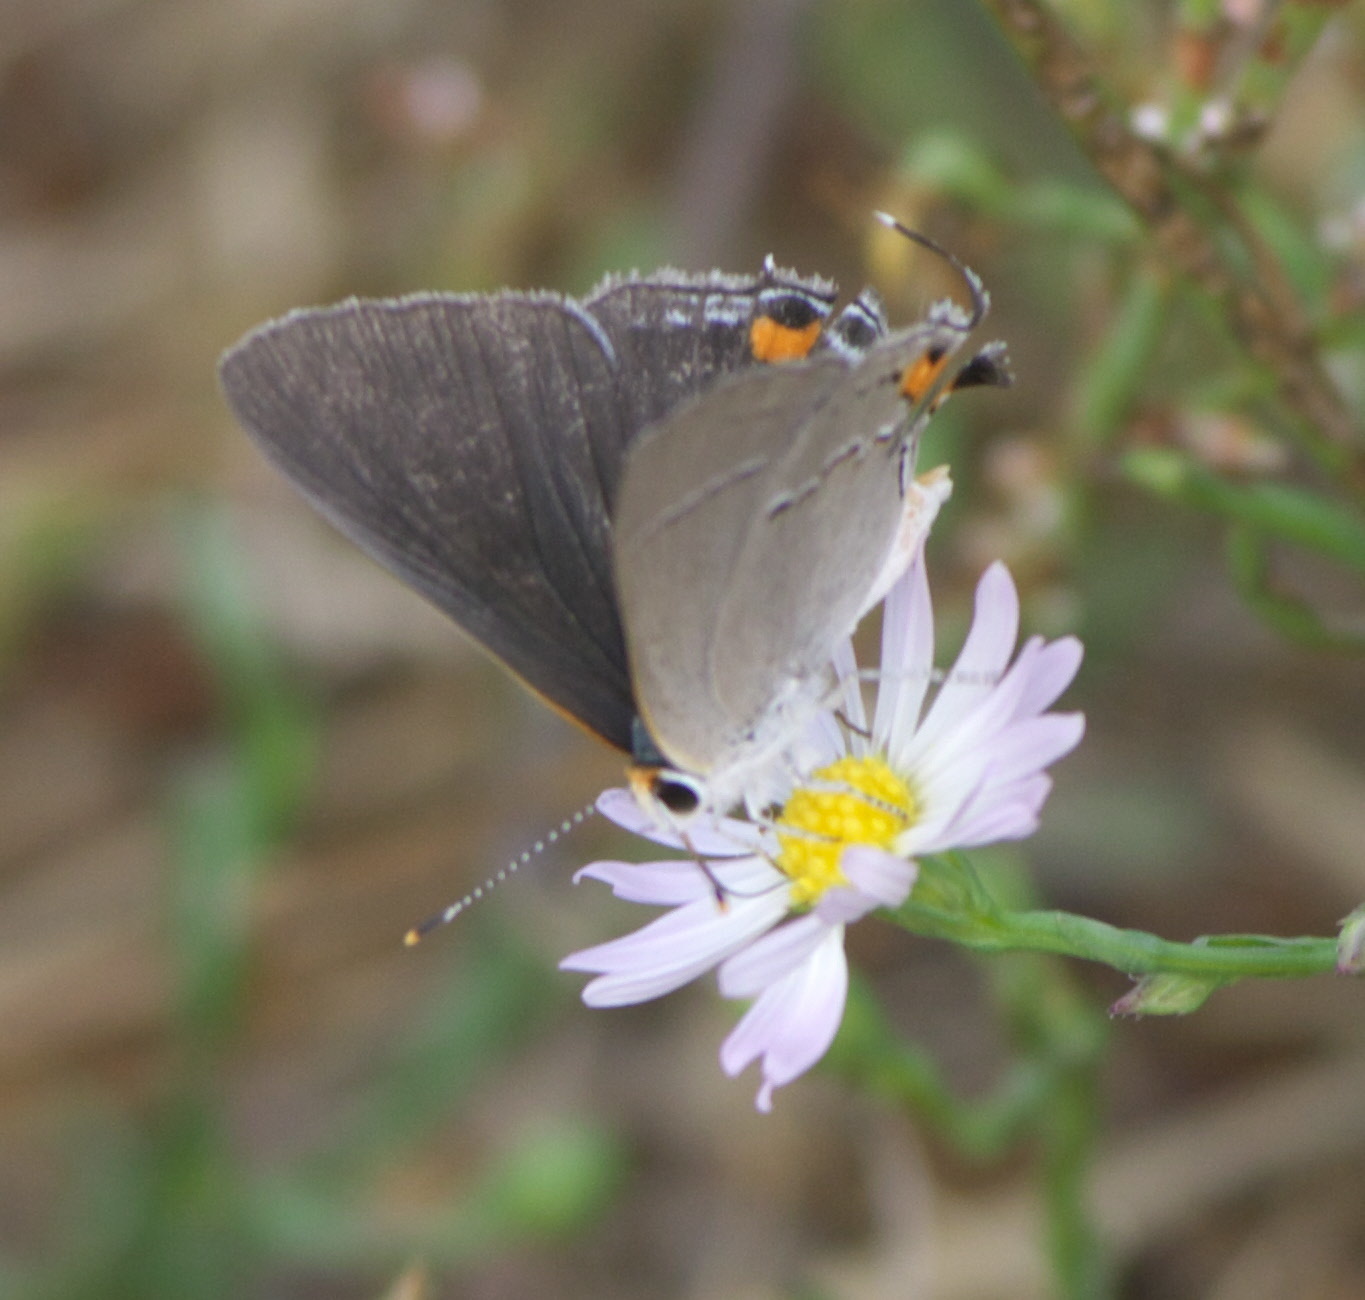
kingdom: Animalia
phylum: Arthropoda
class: Insecta
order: Lepidoptera
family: Lycaenidae
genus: Strymon
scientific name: Strymon melinus
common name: Gray hairstreak
